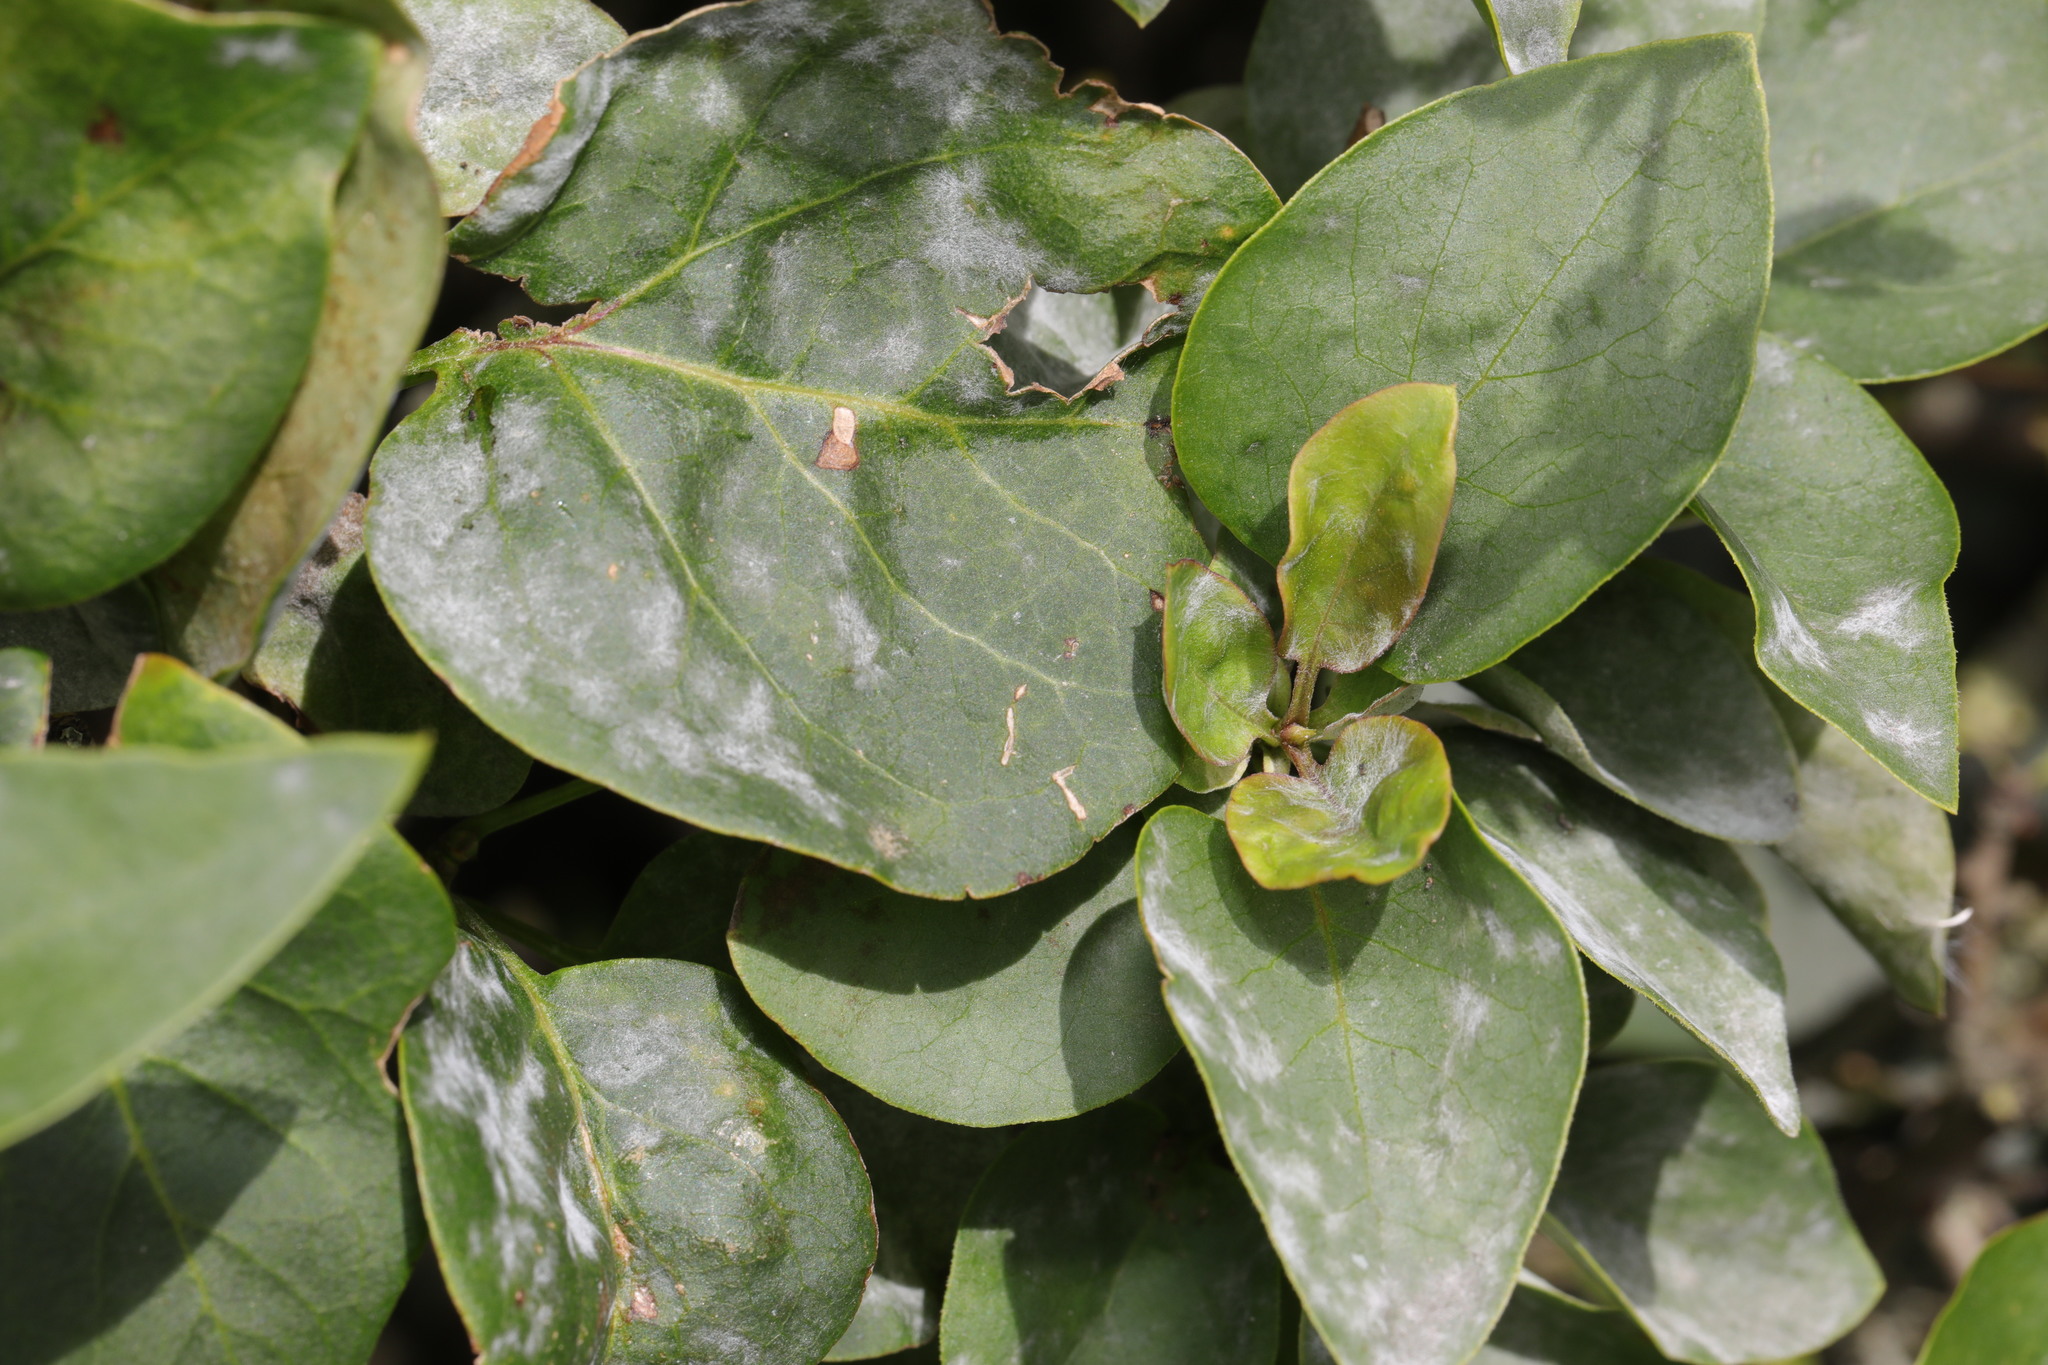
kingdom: Plantae
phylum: Tracheophyta
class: Magnoliopsida
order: Lamiales
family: Oleaceae
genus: Syringa
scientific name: Syringa vulgaris
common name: Common lilac
